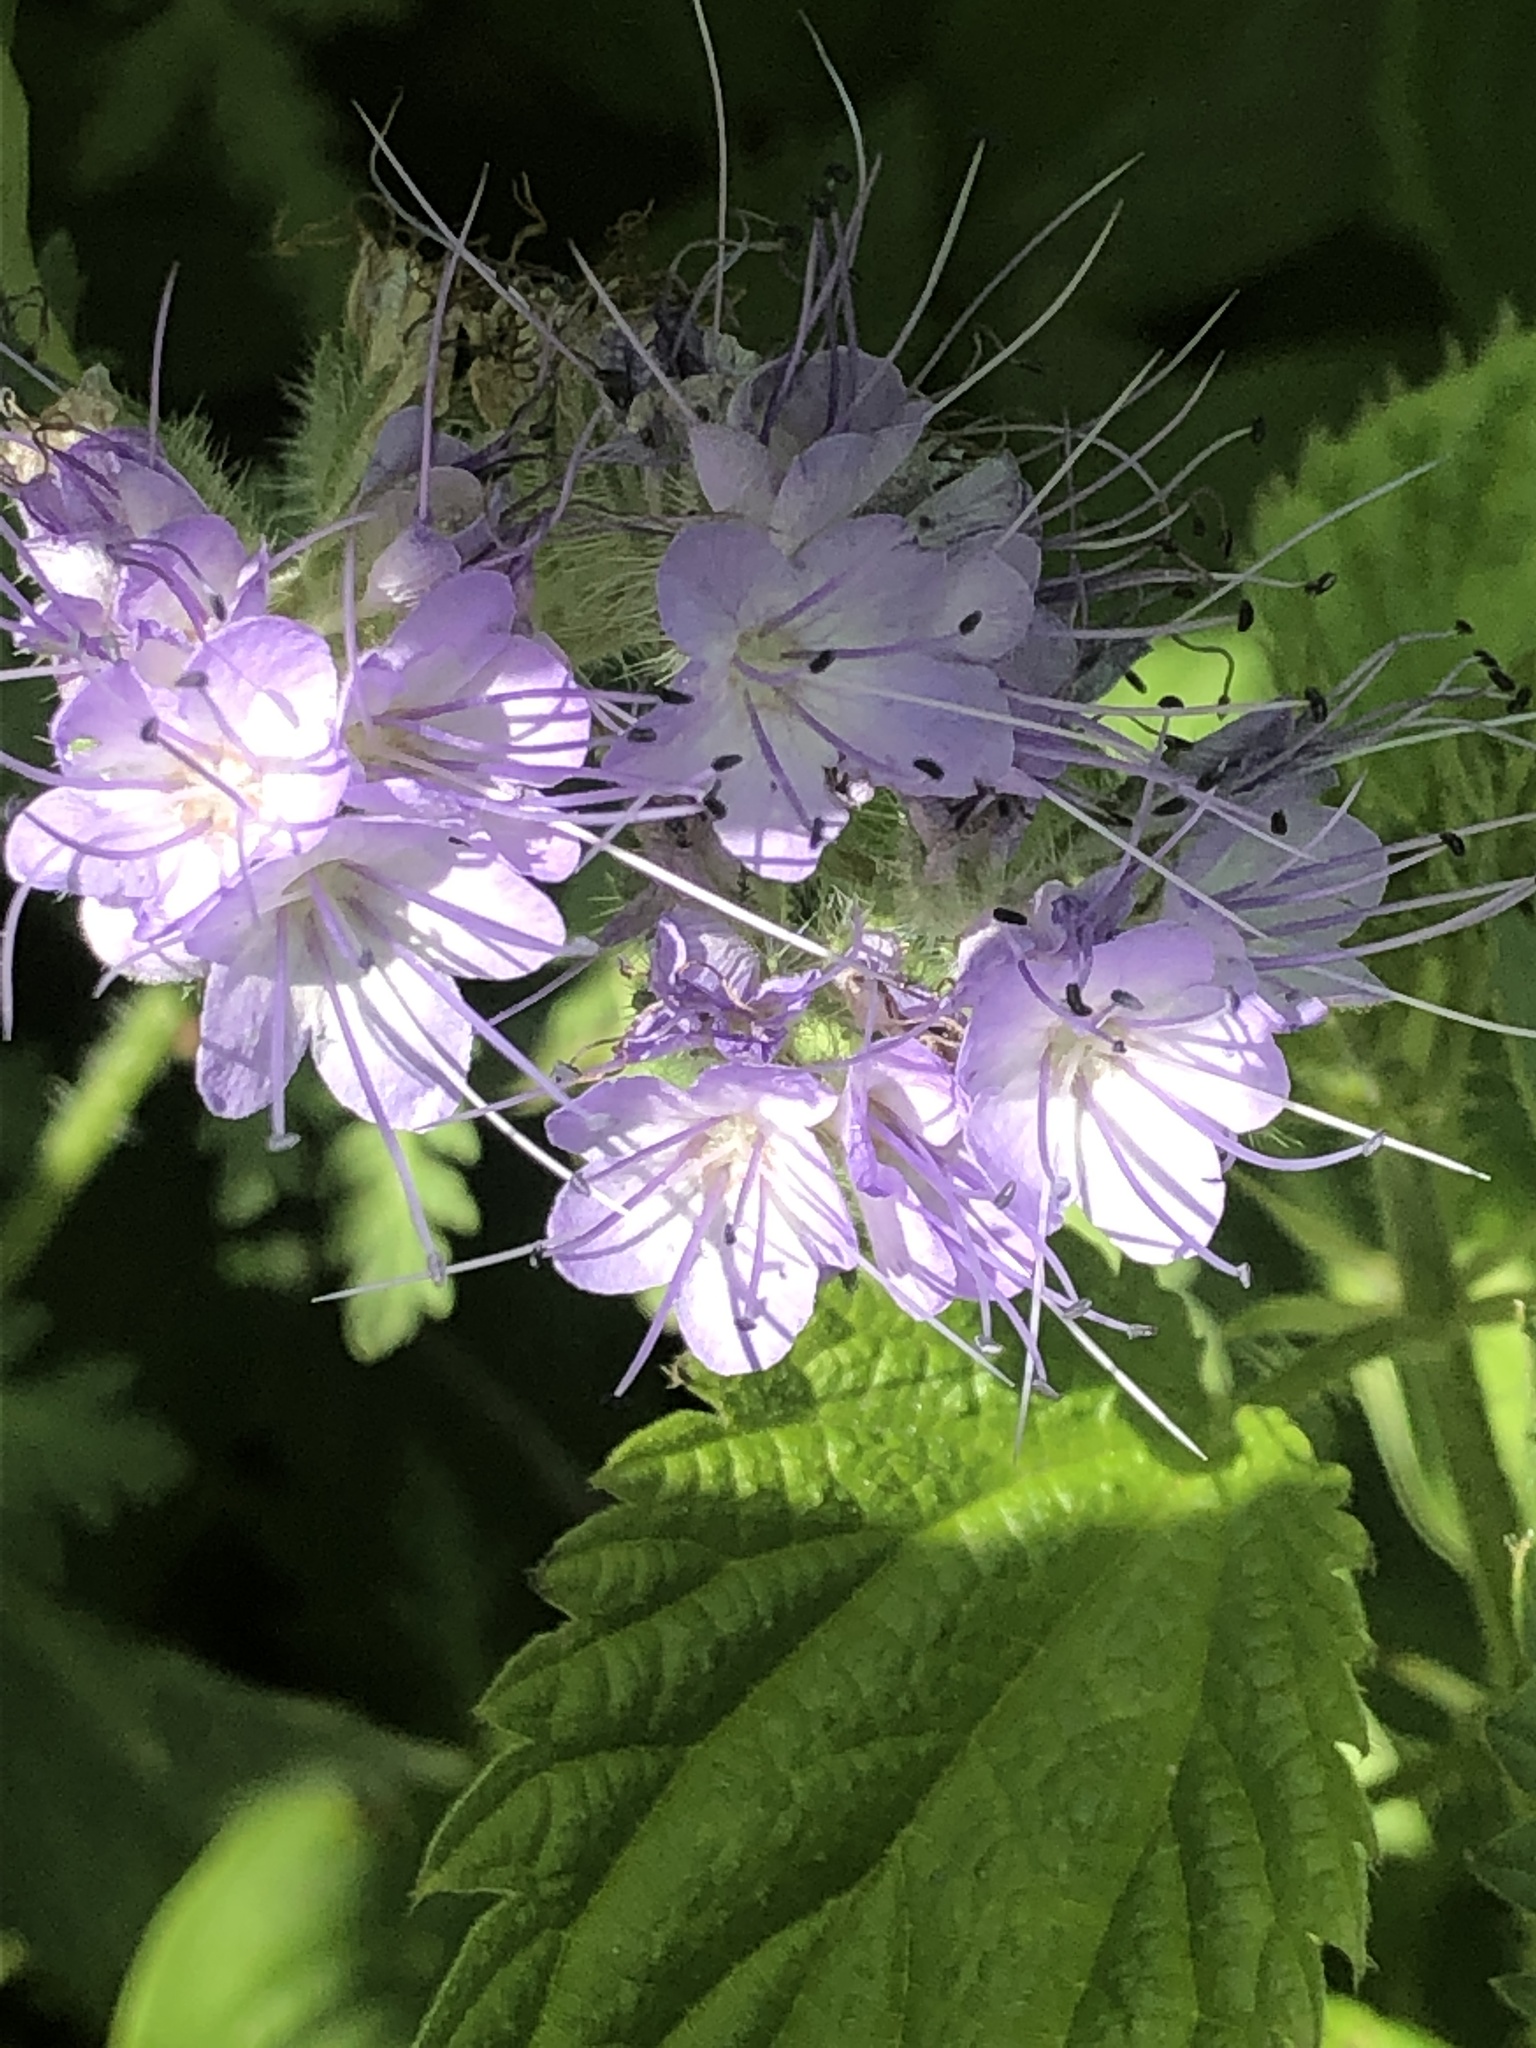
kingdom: Plantae
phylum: Tracheophyta
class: Magnoliopsida
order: Boraginales
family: Hydrophyllaceae
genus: Phacelia
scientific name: Phacelia tanacetifolia
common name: Phacelia
